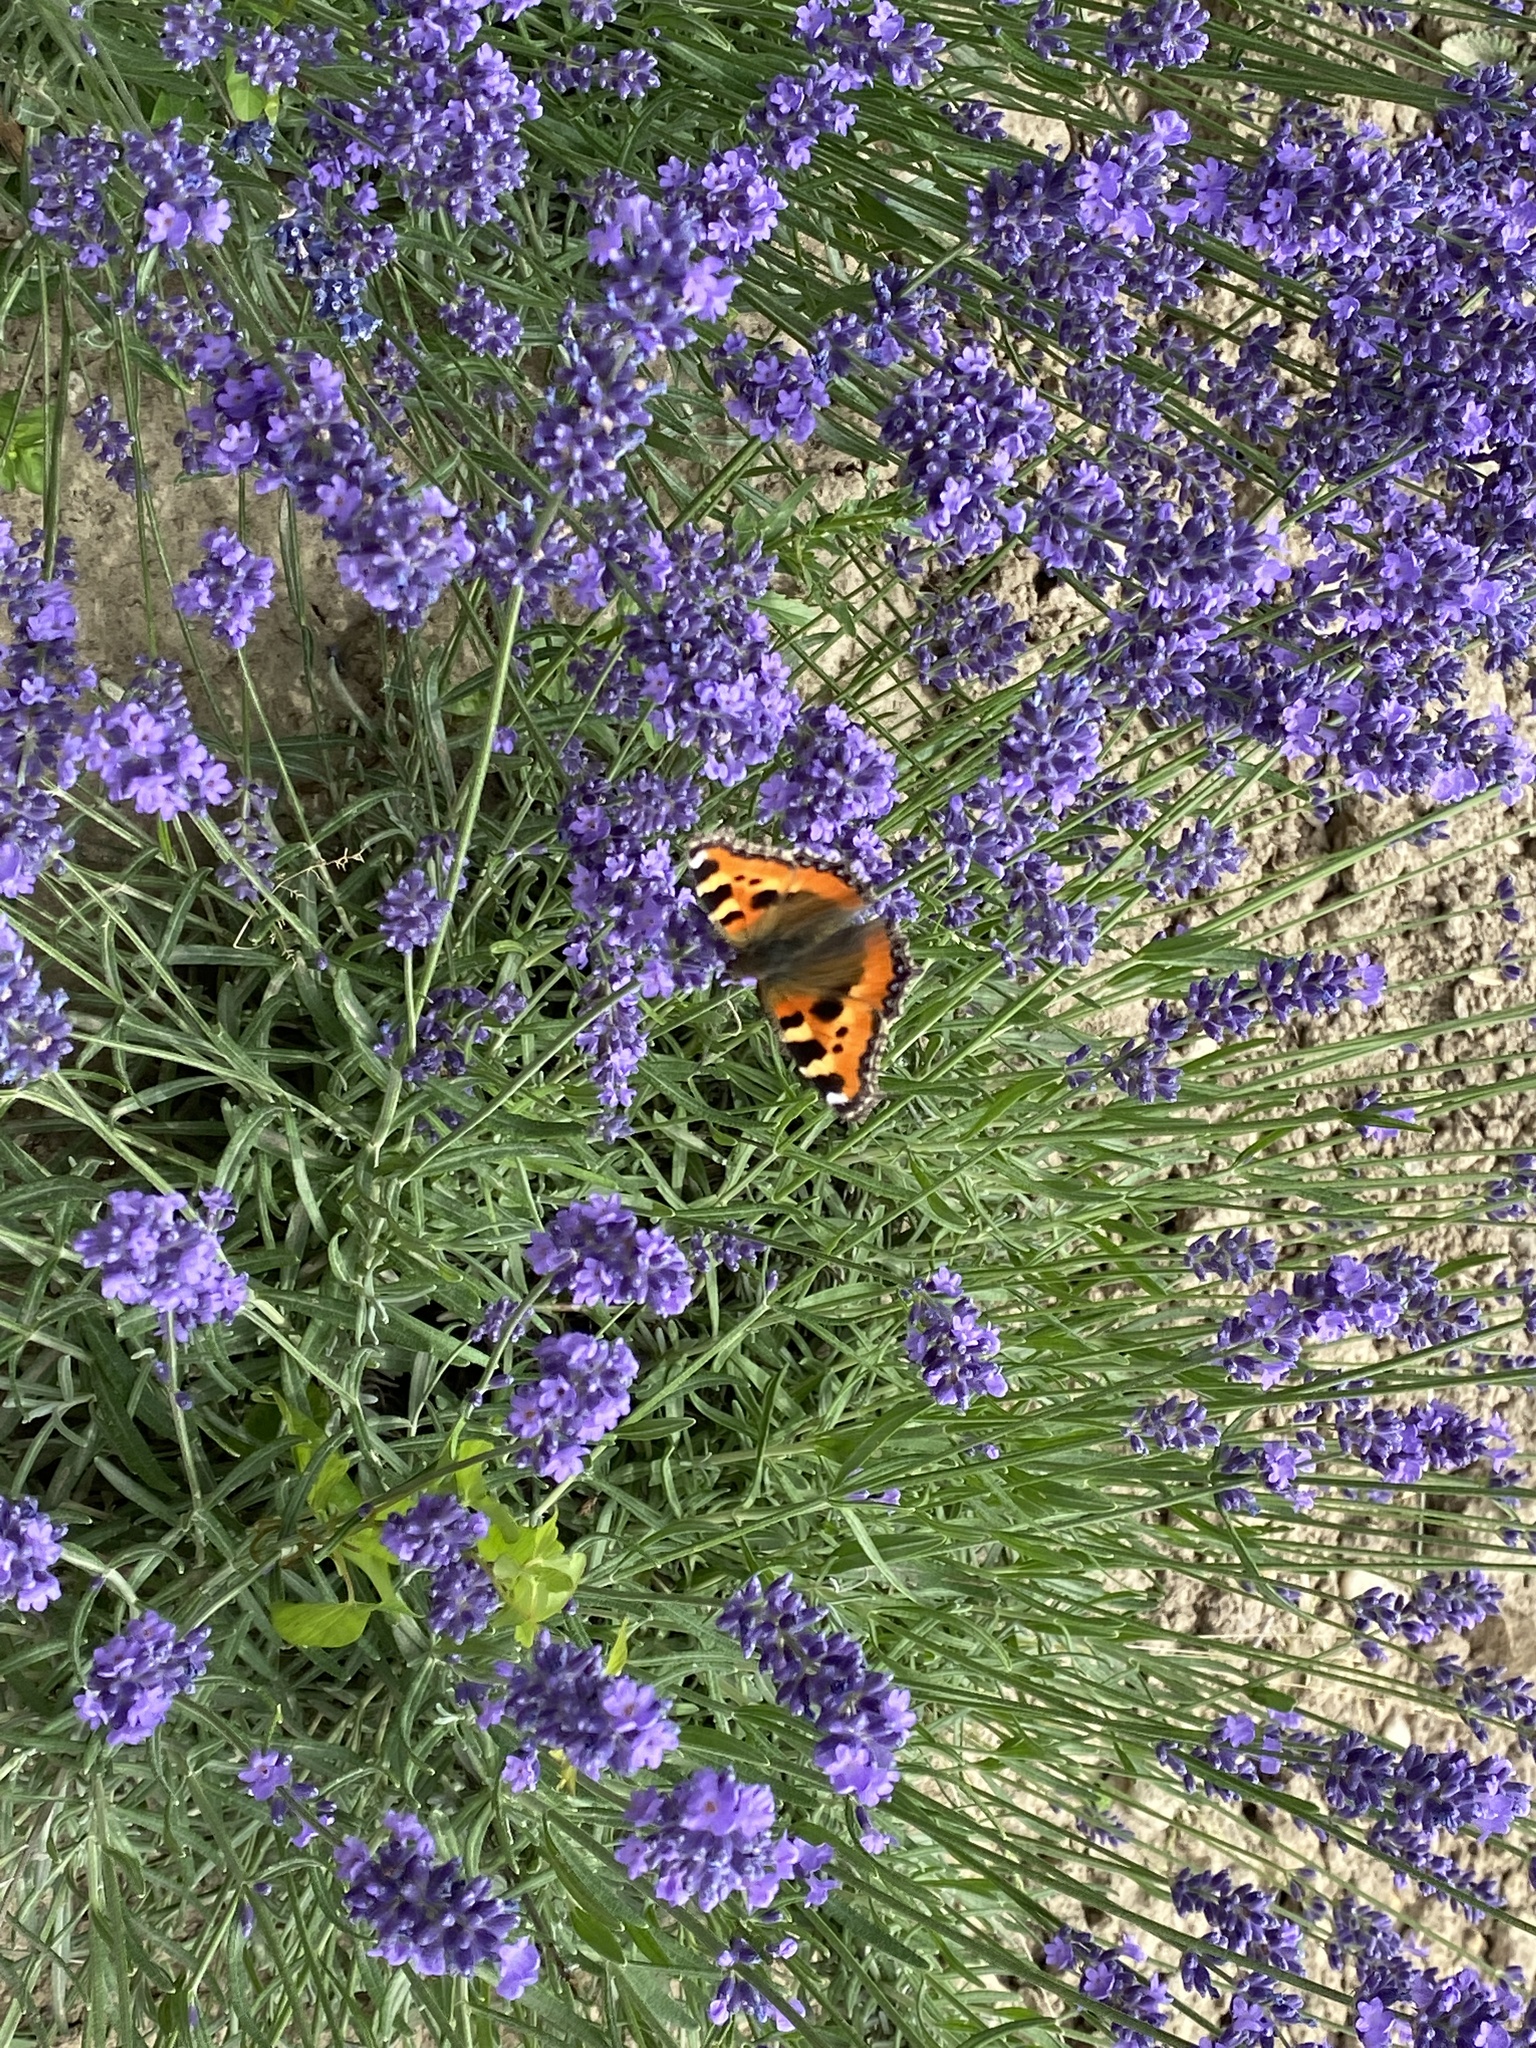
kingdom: Animalia
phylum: Arthropoda
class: Insecta
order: Lepidoptera
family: Nymphalidae
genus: Aglais
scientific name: Aglais urticae
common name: Small tortoiseshell
